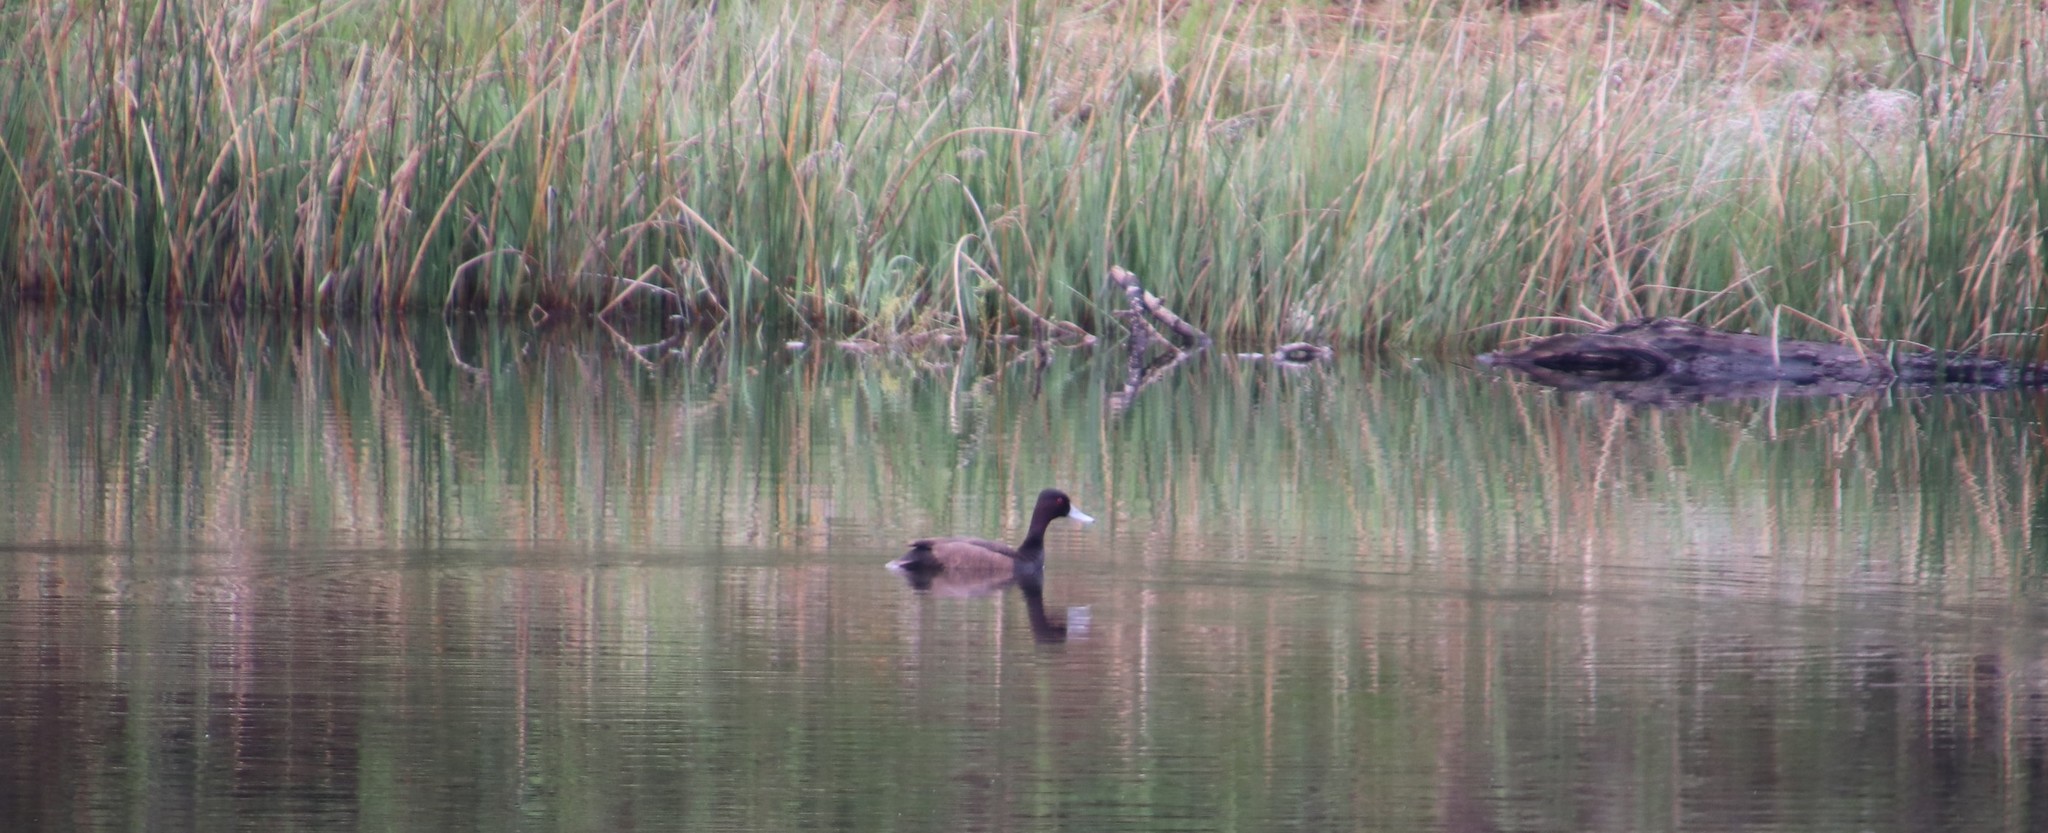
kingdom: Animalia
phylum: Chordata
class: Aves
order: Anseriformes
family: Anatidae
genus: Netta
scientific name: Netta erythrophthalma
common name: Southern pochard
